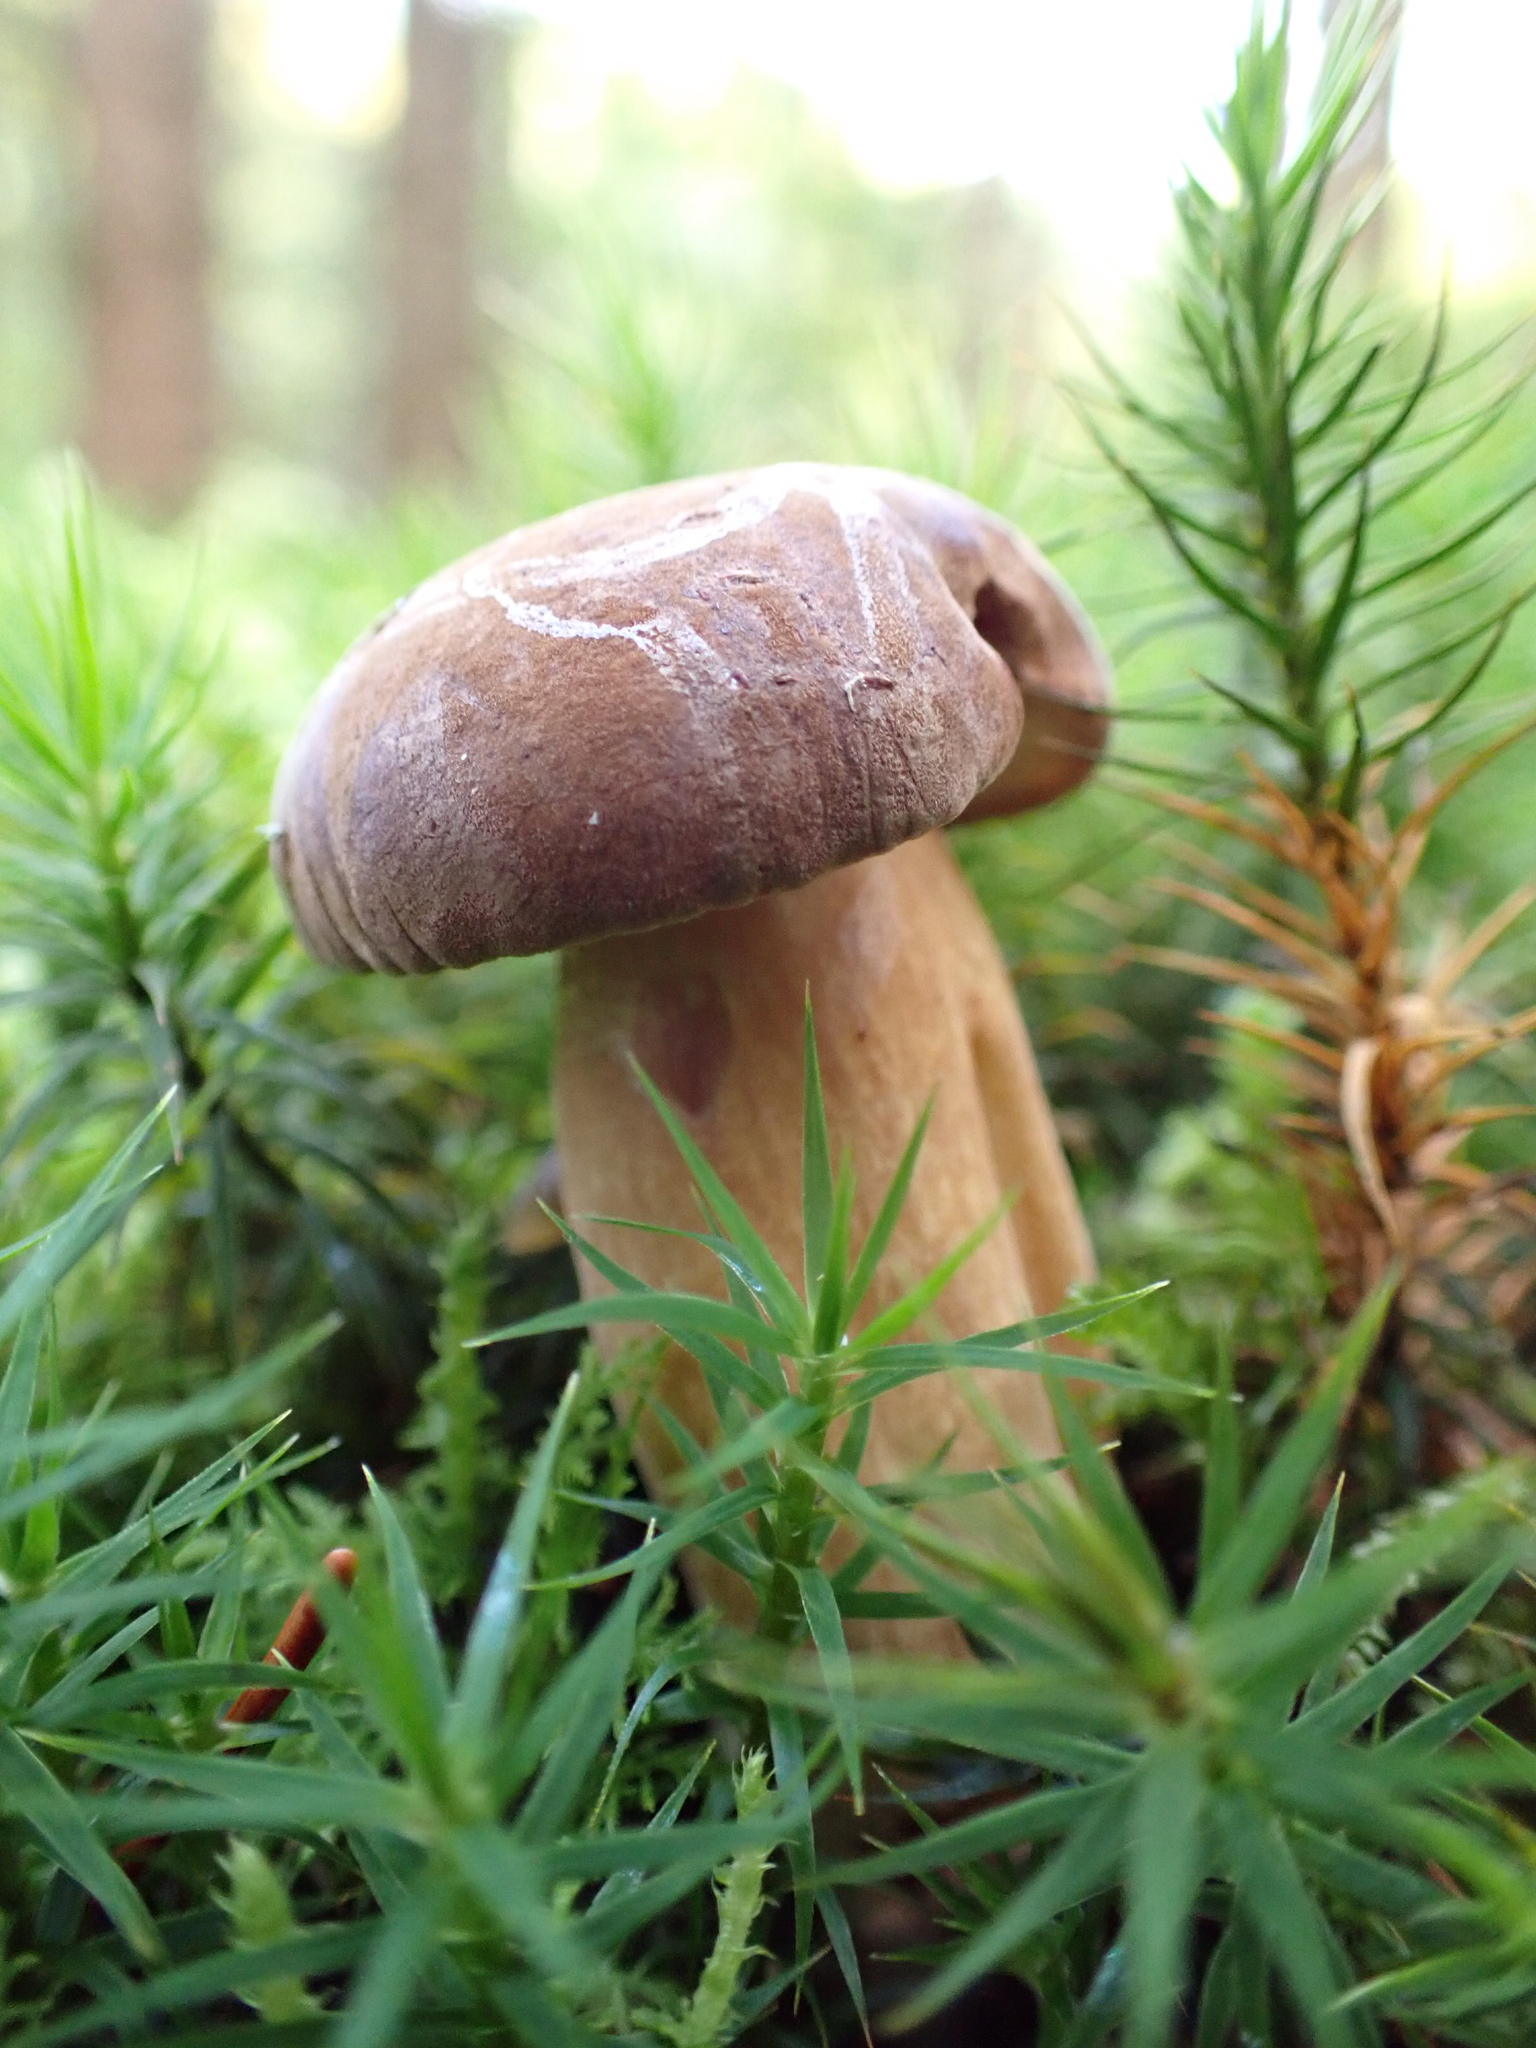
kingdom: Fungi
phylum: Basidiomycota
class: Agaricomycetes
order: Boletales
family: Boletaceae
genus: Imleria
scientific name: Imleria badia
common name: Bay bolete
